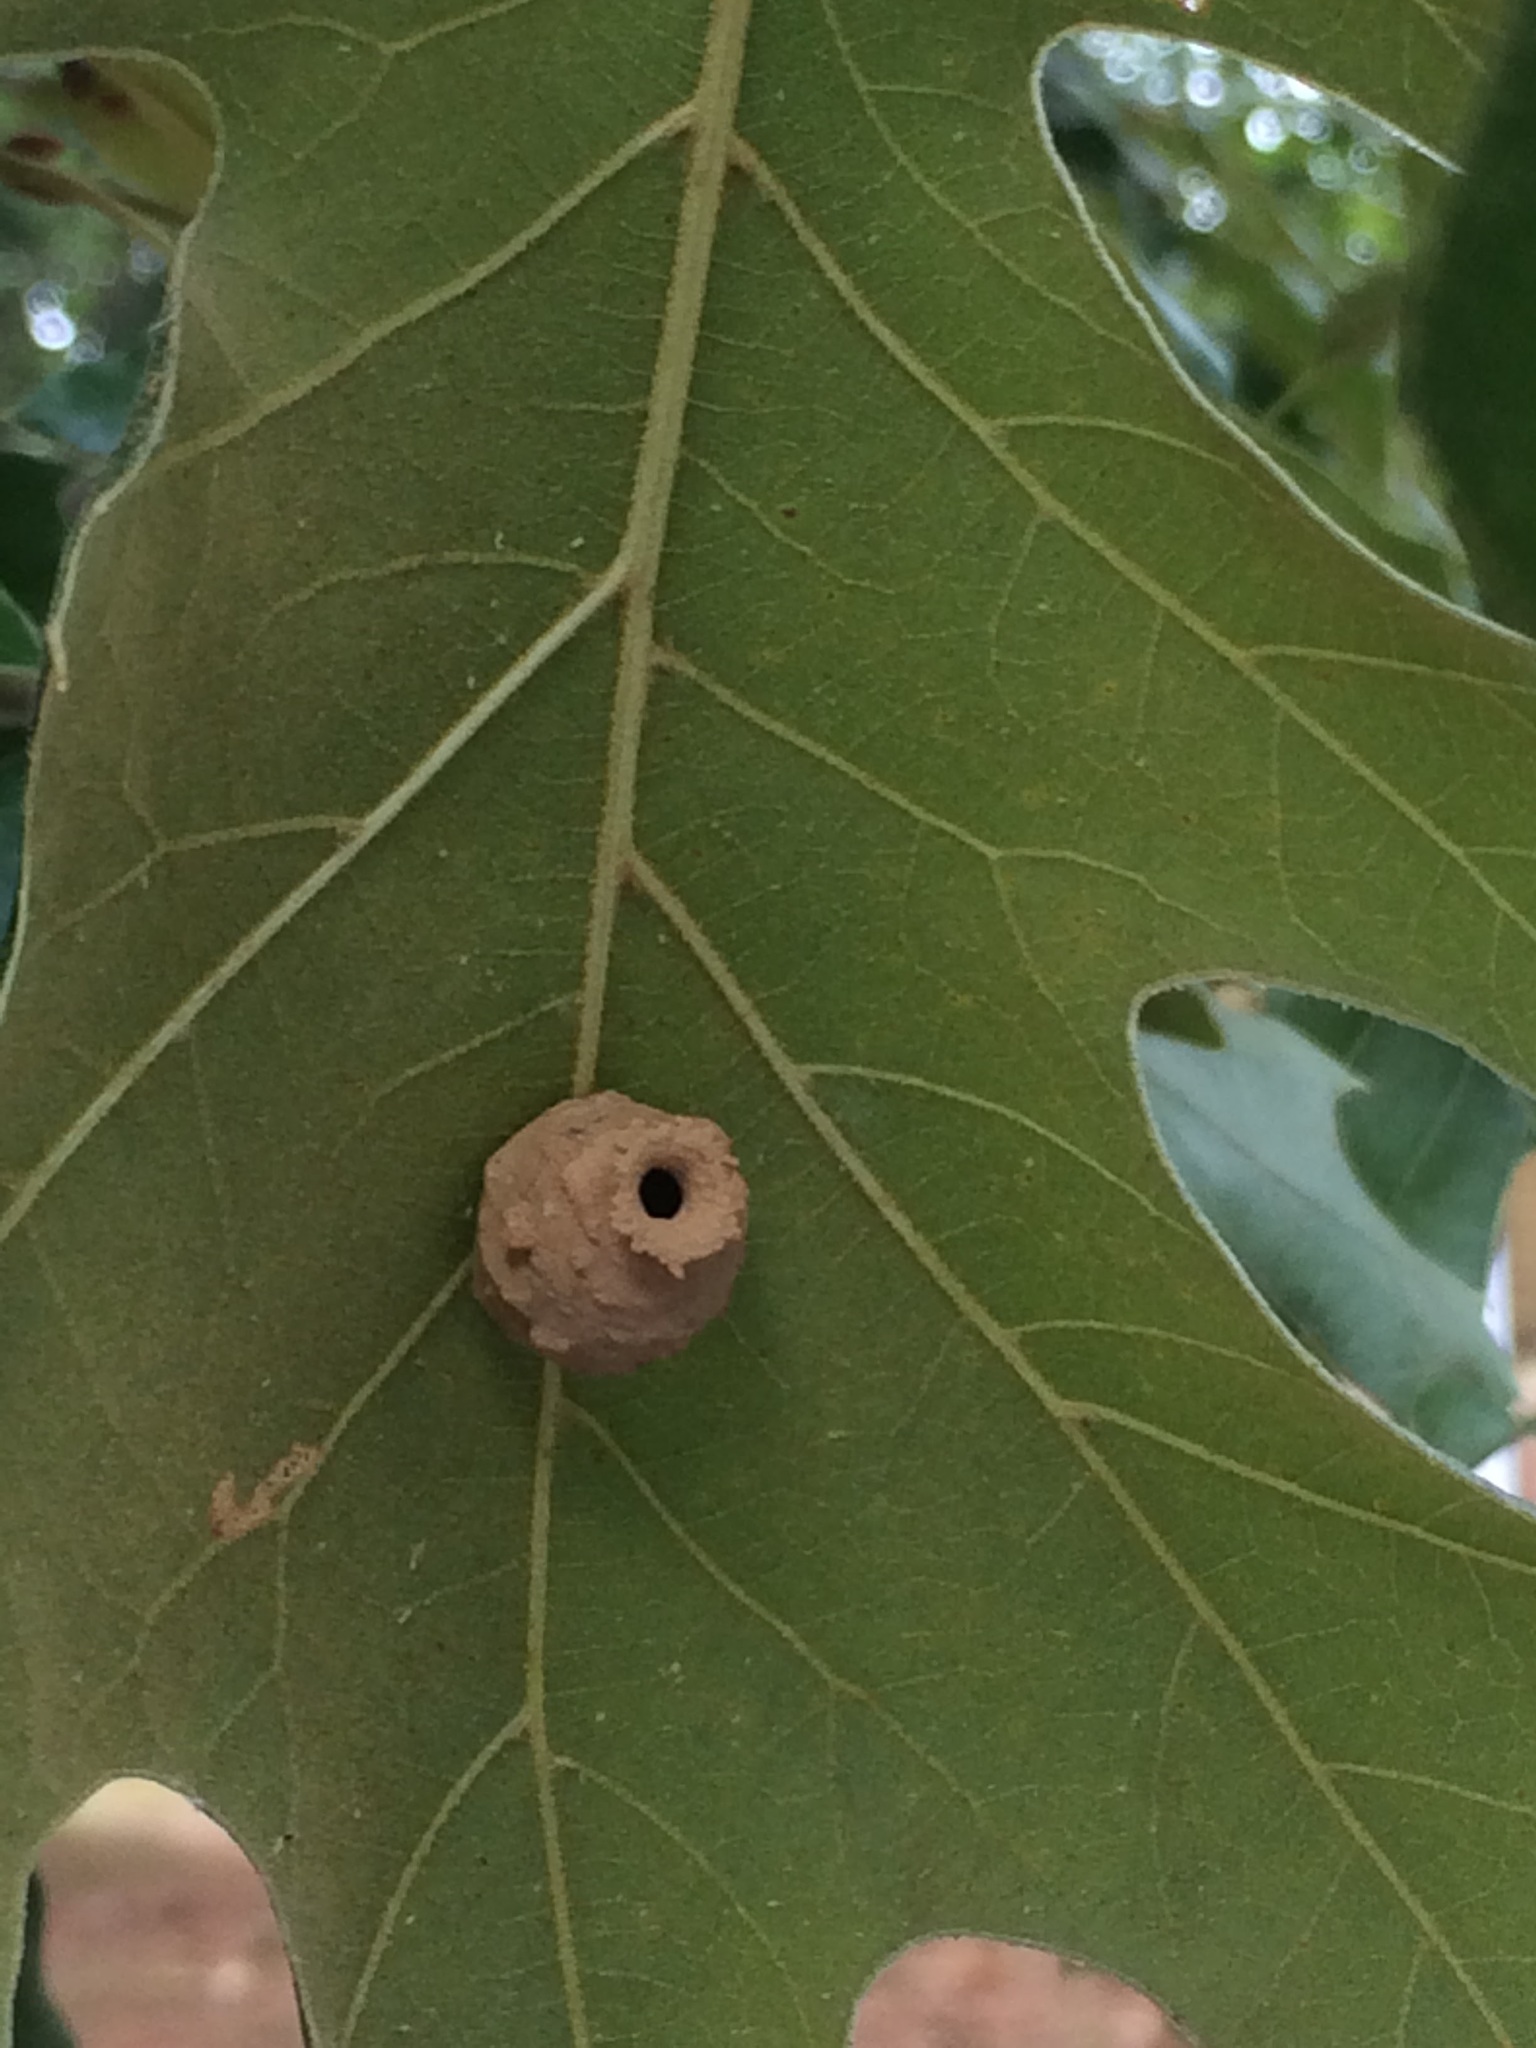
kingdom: Animalia
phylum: Arthropoda
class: Insecta
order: Hymenoptera
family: Vespidae
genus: Eumenes
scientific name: Eumenes
